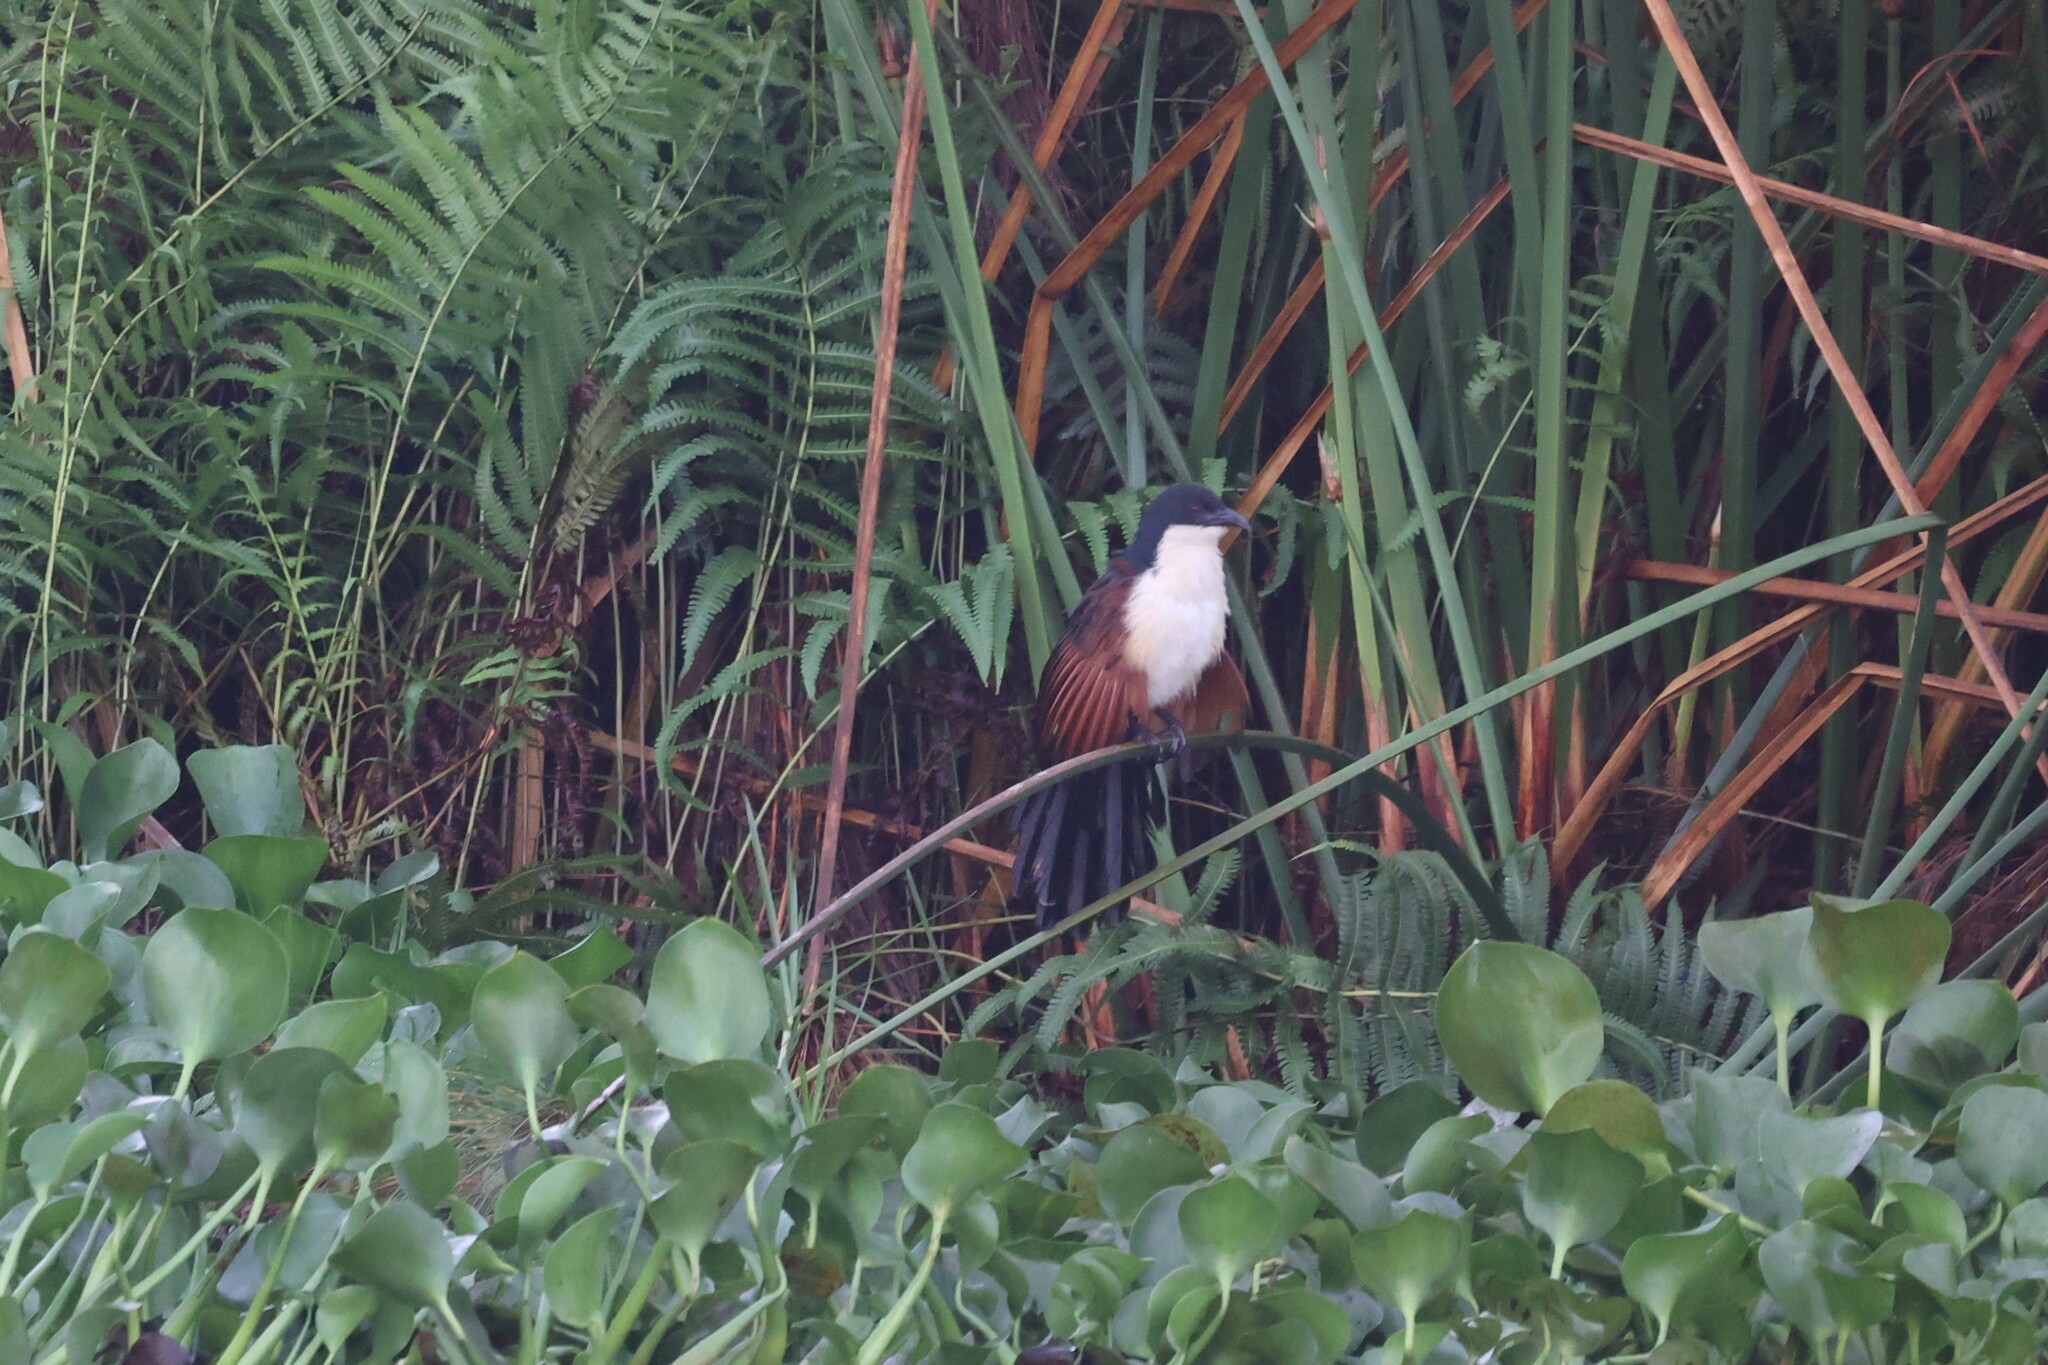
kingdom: Animalia
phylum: Chordata
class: Aves
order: Cuculiformes
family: Cuculidae
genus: Centropus
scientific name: Centropus monachus
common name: Blue-headed coucal
